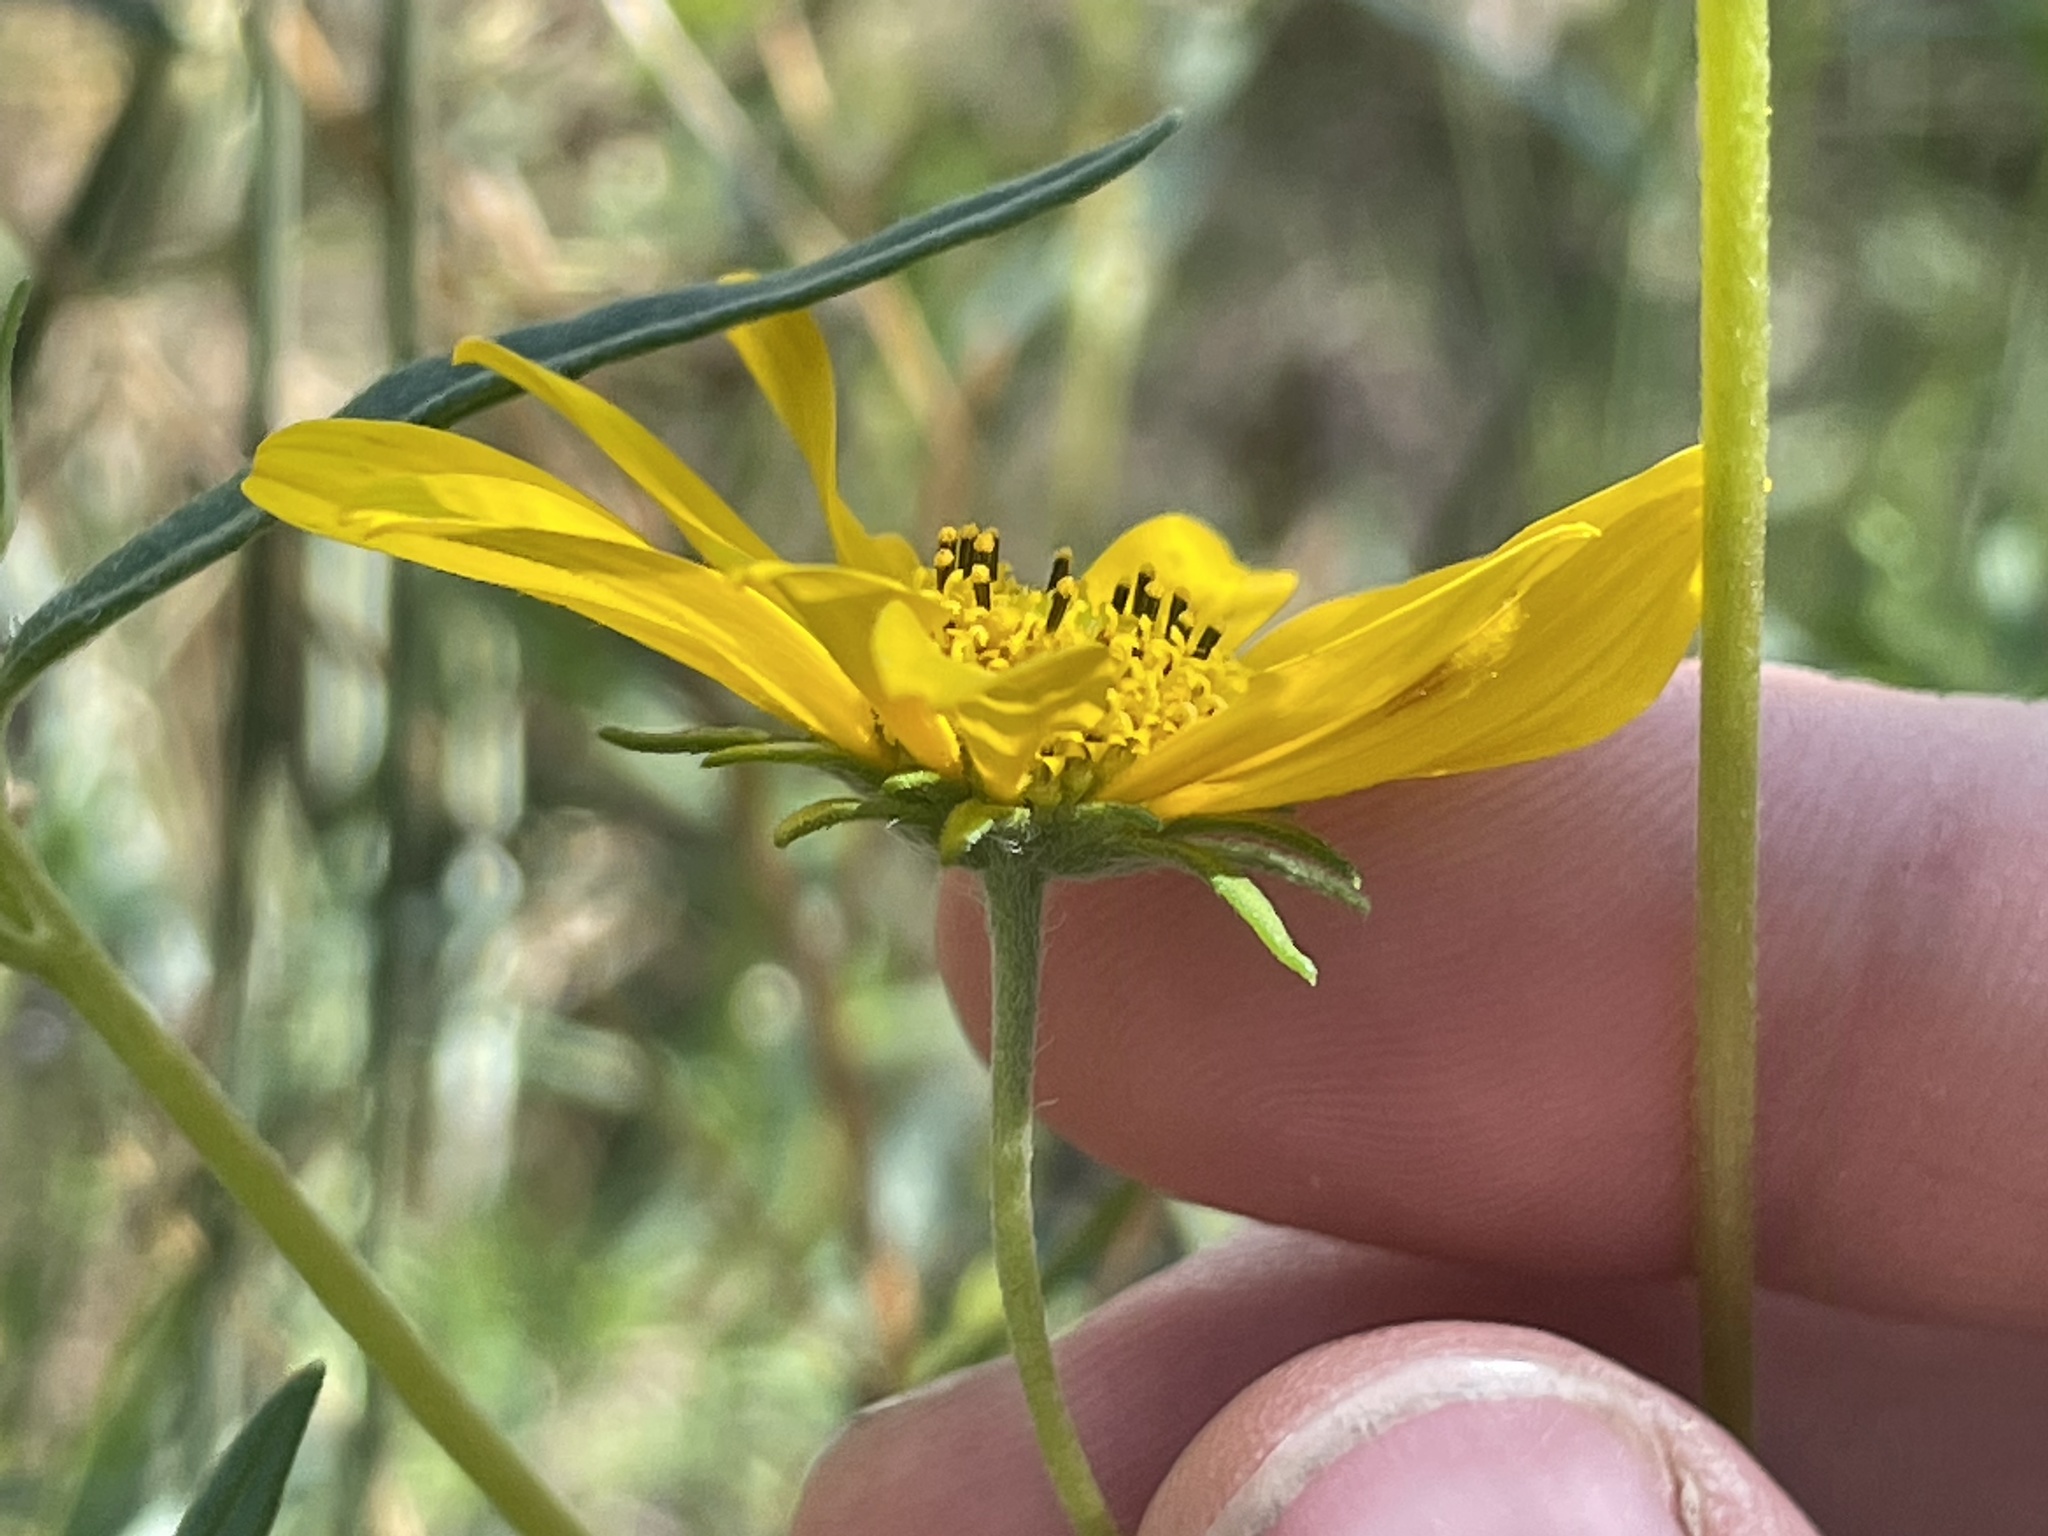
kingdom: Plantae
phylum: Tracheophyta
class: Magnoliopsida
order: Asterales
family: Asteraceae
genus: Heliomeris
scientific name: Heliomeris multiflora
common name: Showy goldeneye
